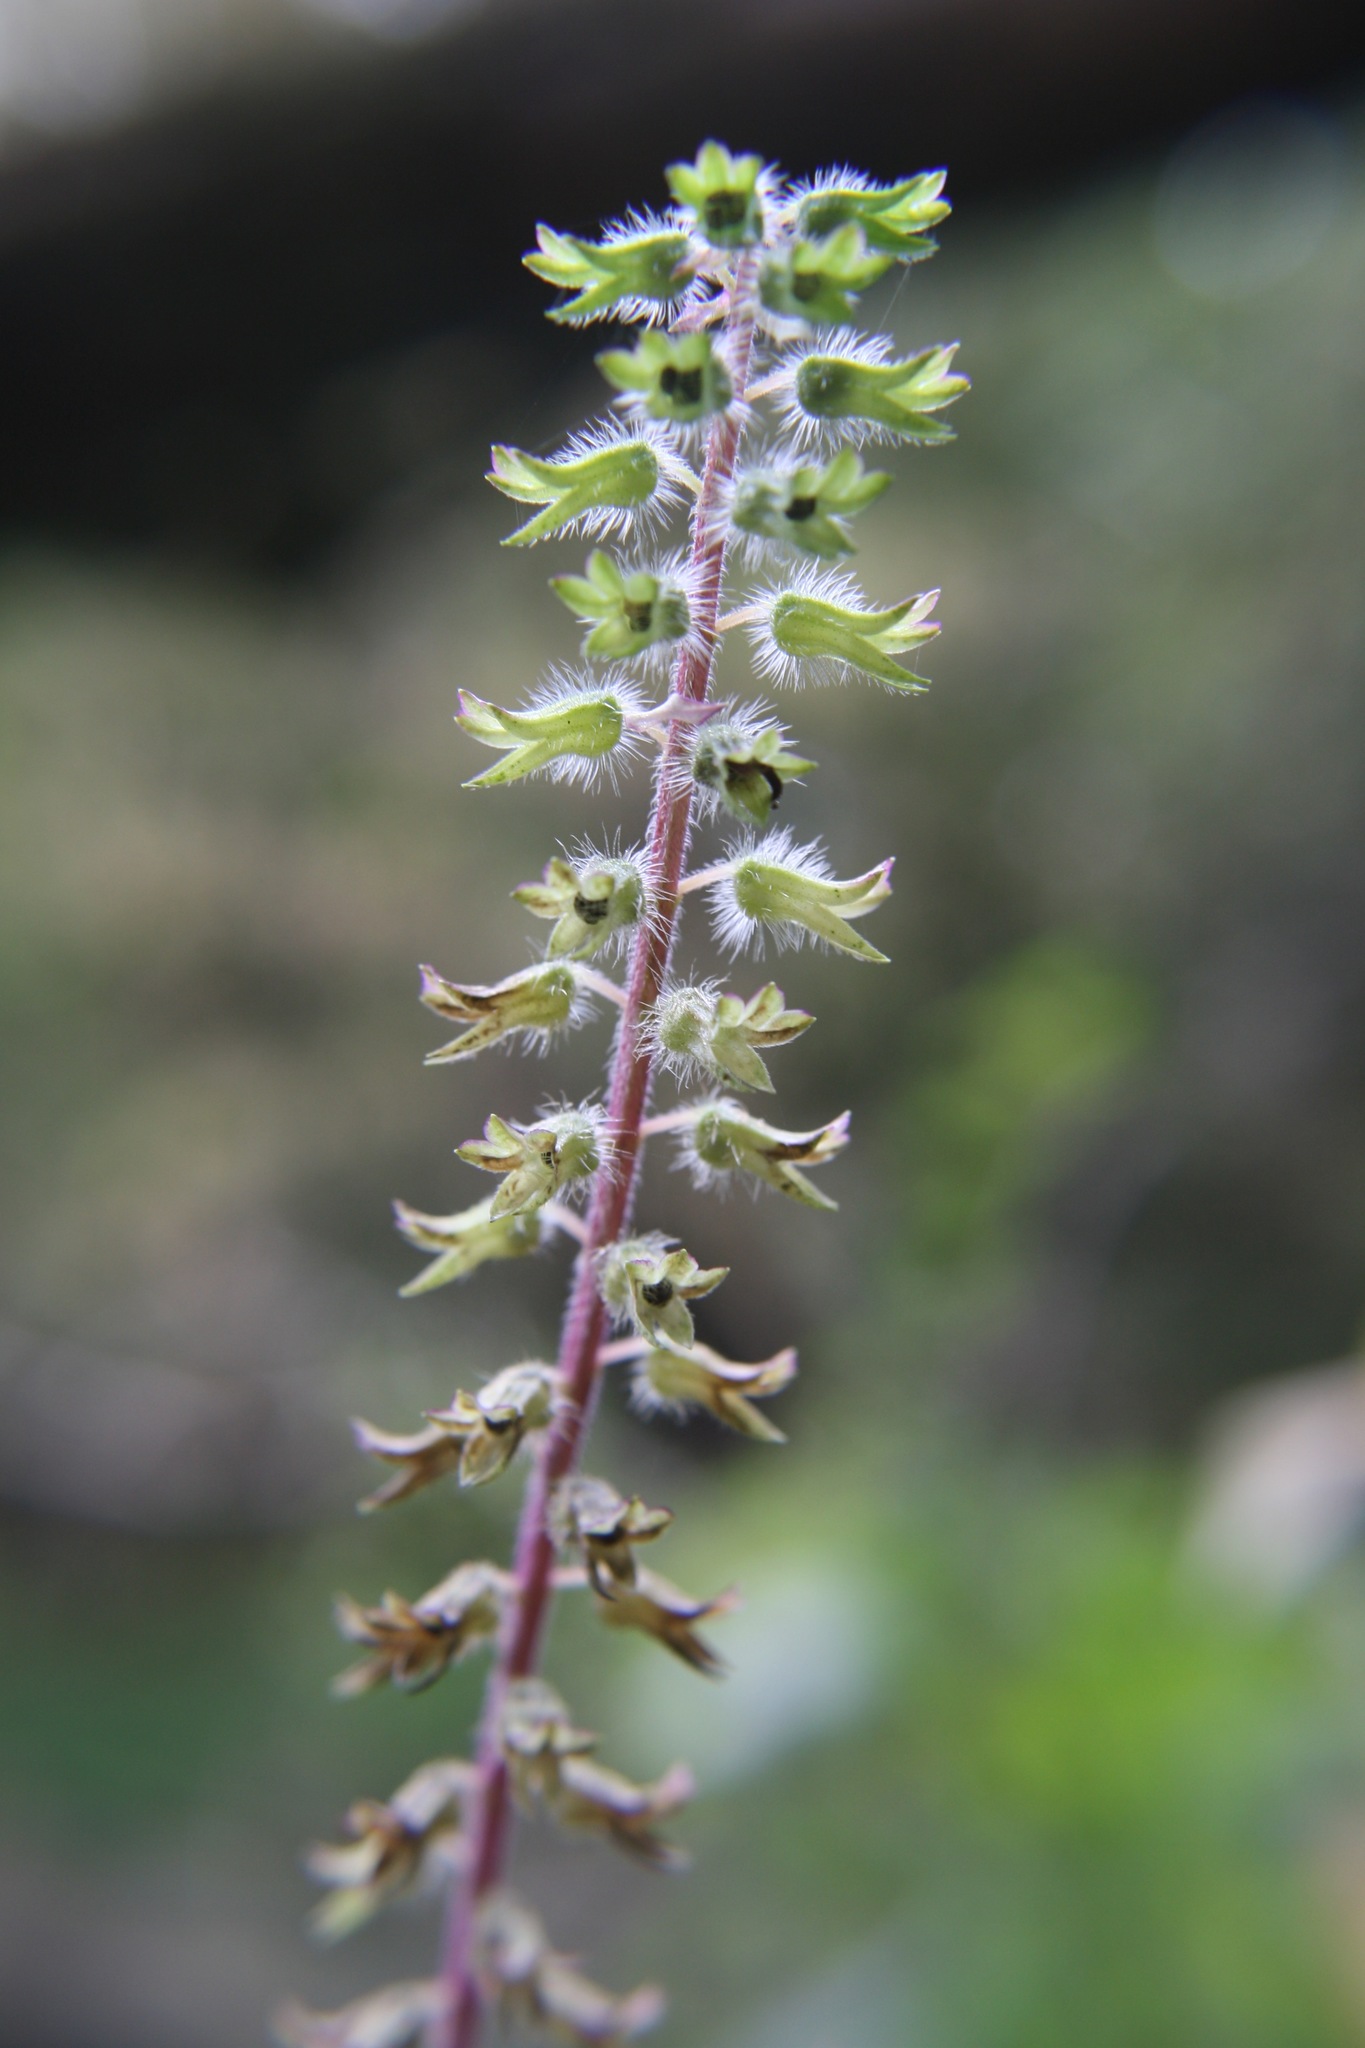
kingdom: Plantae
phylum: Tracheophyta
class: Magnoliopsida
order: Lamiales
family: Lamiaceae
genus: Perilla
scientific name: Perilla frutescens
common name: Perilla
